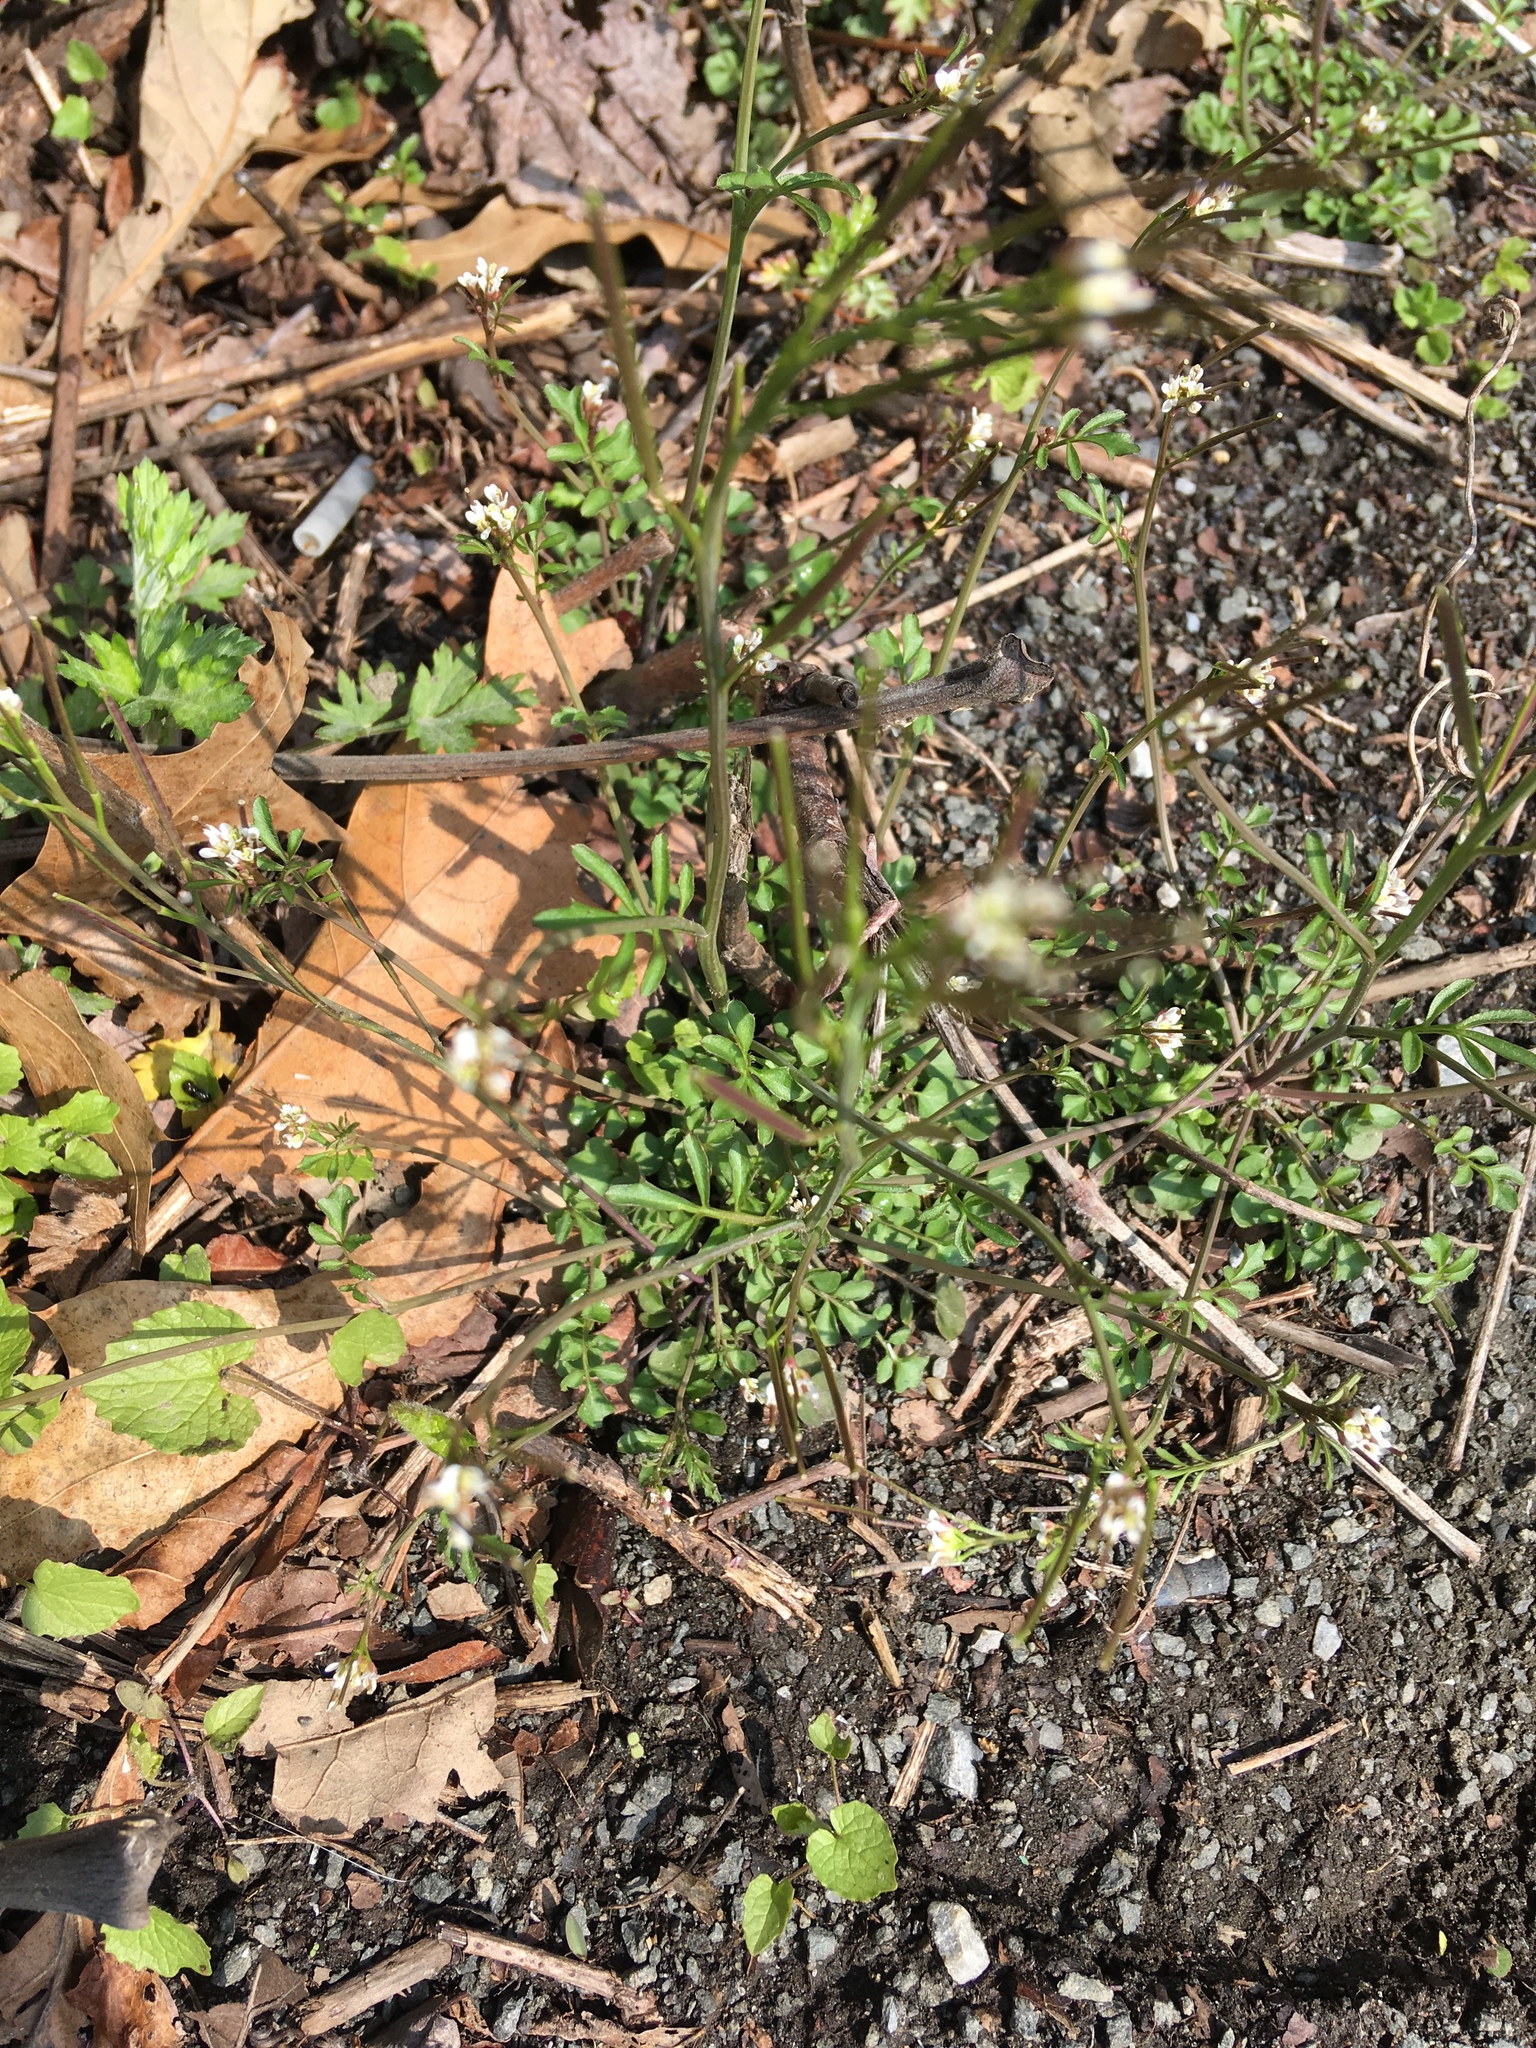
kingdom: Plantae
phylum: Tracheophyta
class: Magnoliopsida
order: Brassicales
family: Brassicaceae
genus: Cardamine
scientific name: Cardamine hirsuta
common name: Hairy bittercress
